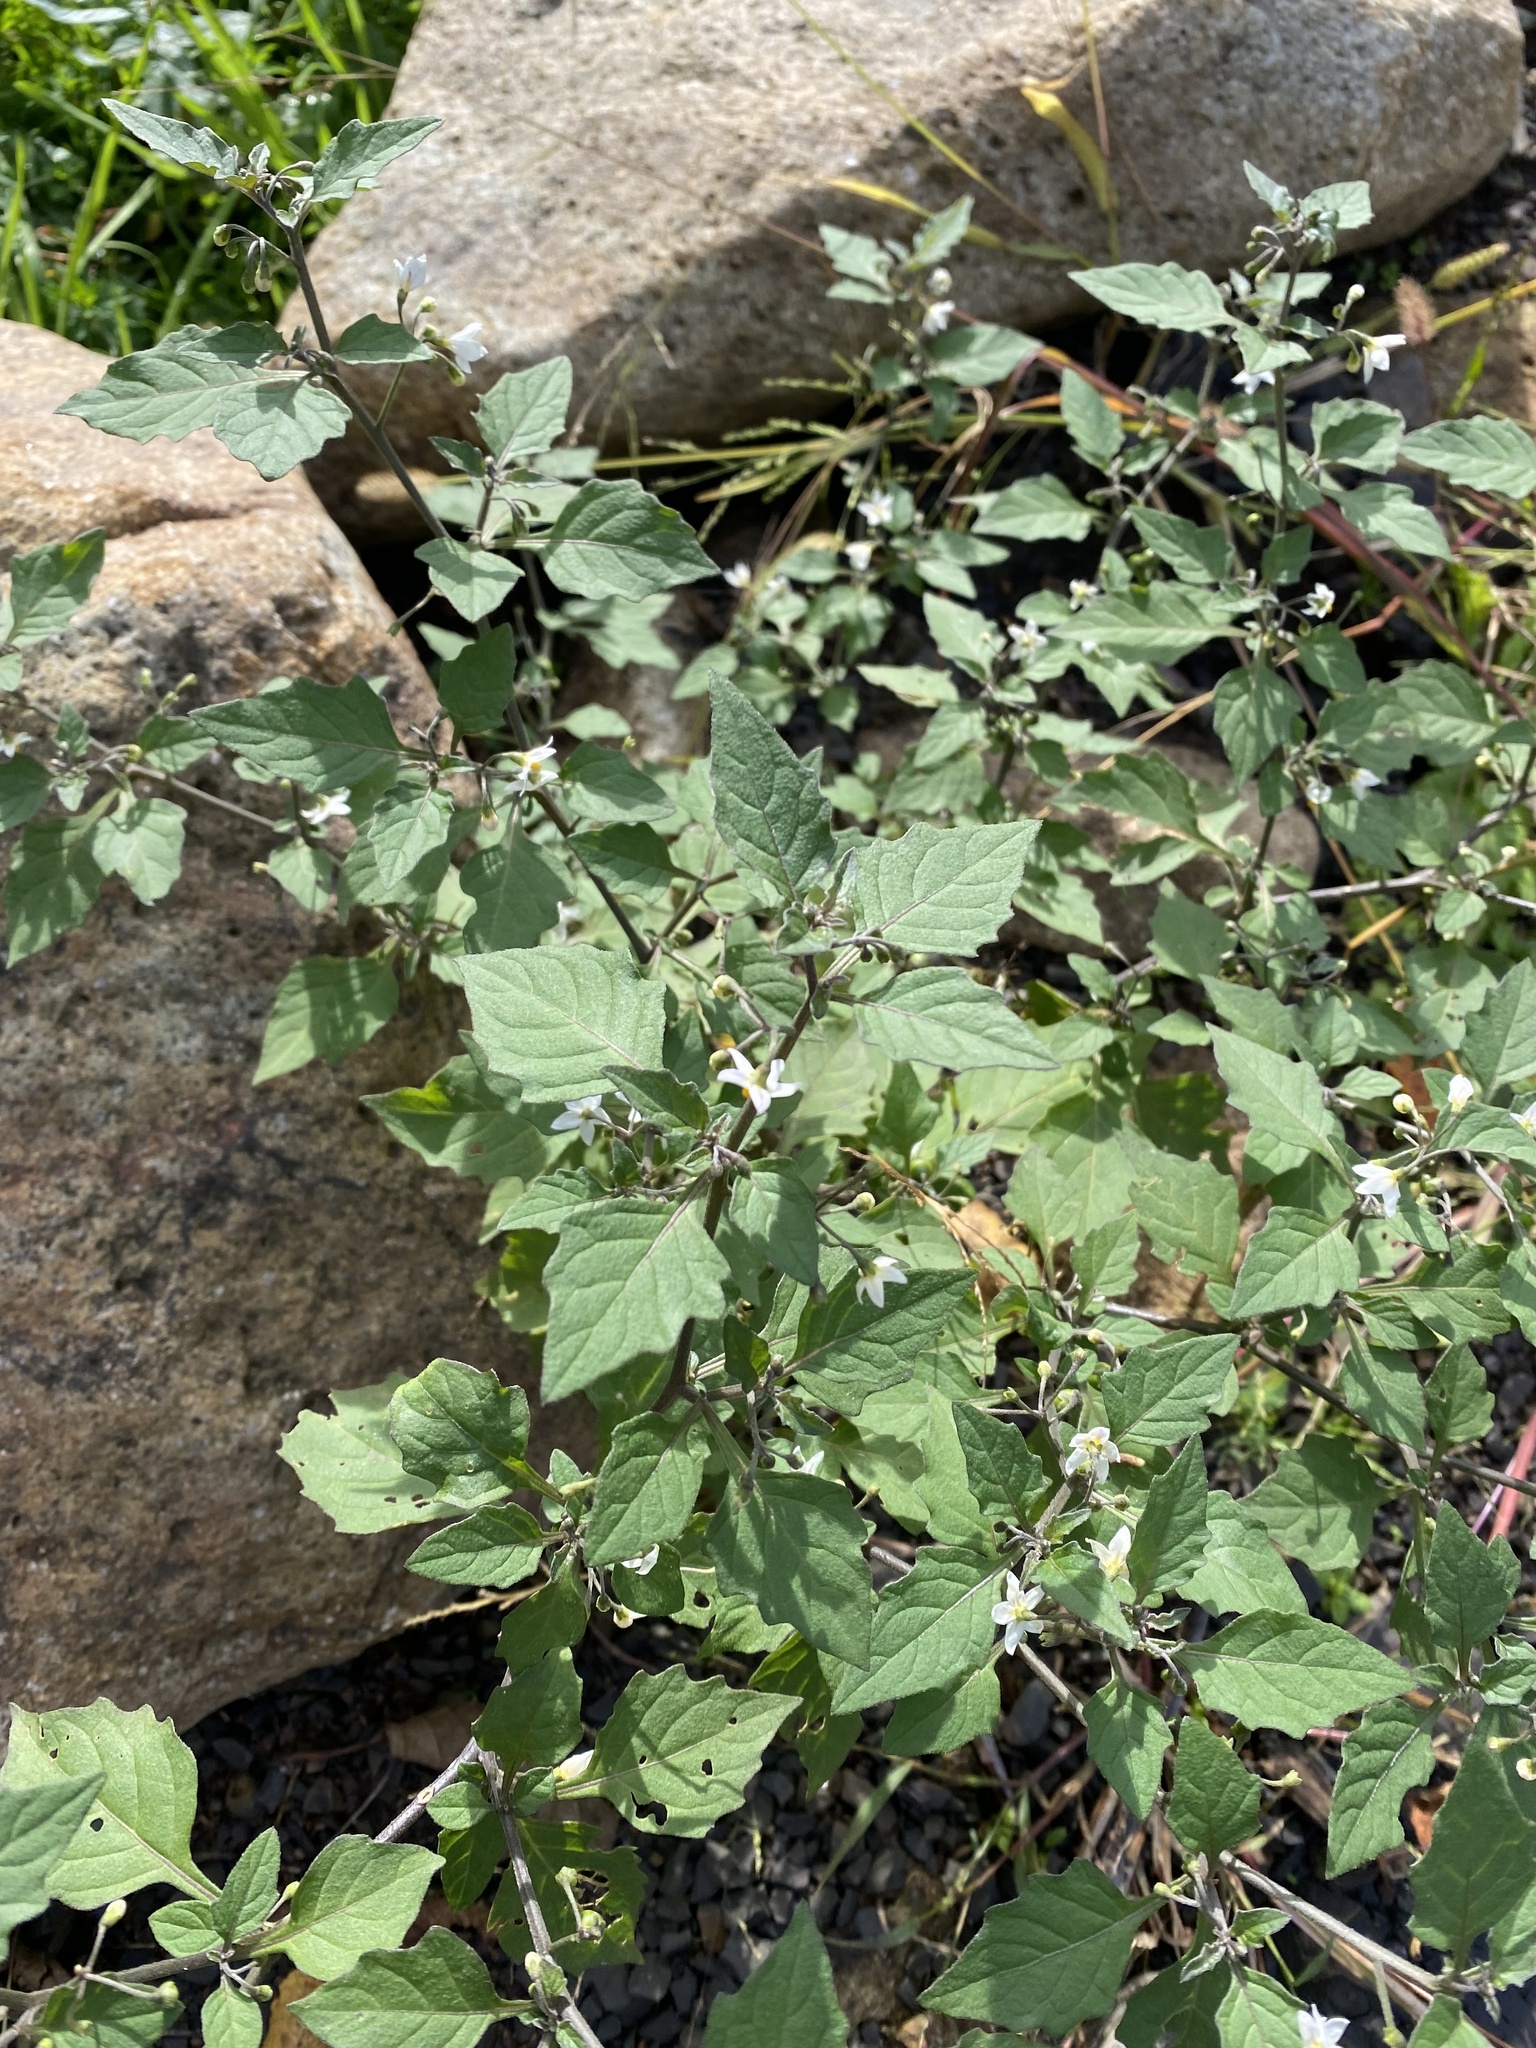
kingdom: Plantae
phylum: Tracheophyta
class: Magnoliopsida
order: Solanales
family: Solanaceae
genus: Solanum
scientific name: Solanum nigrum
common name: Black nightshade
